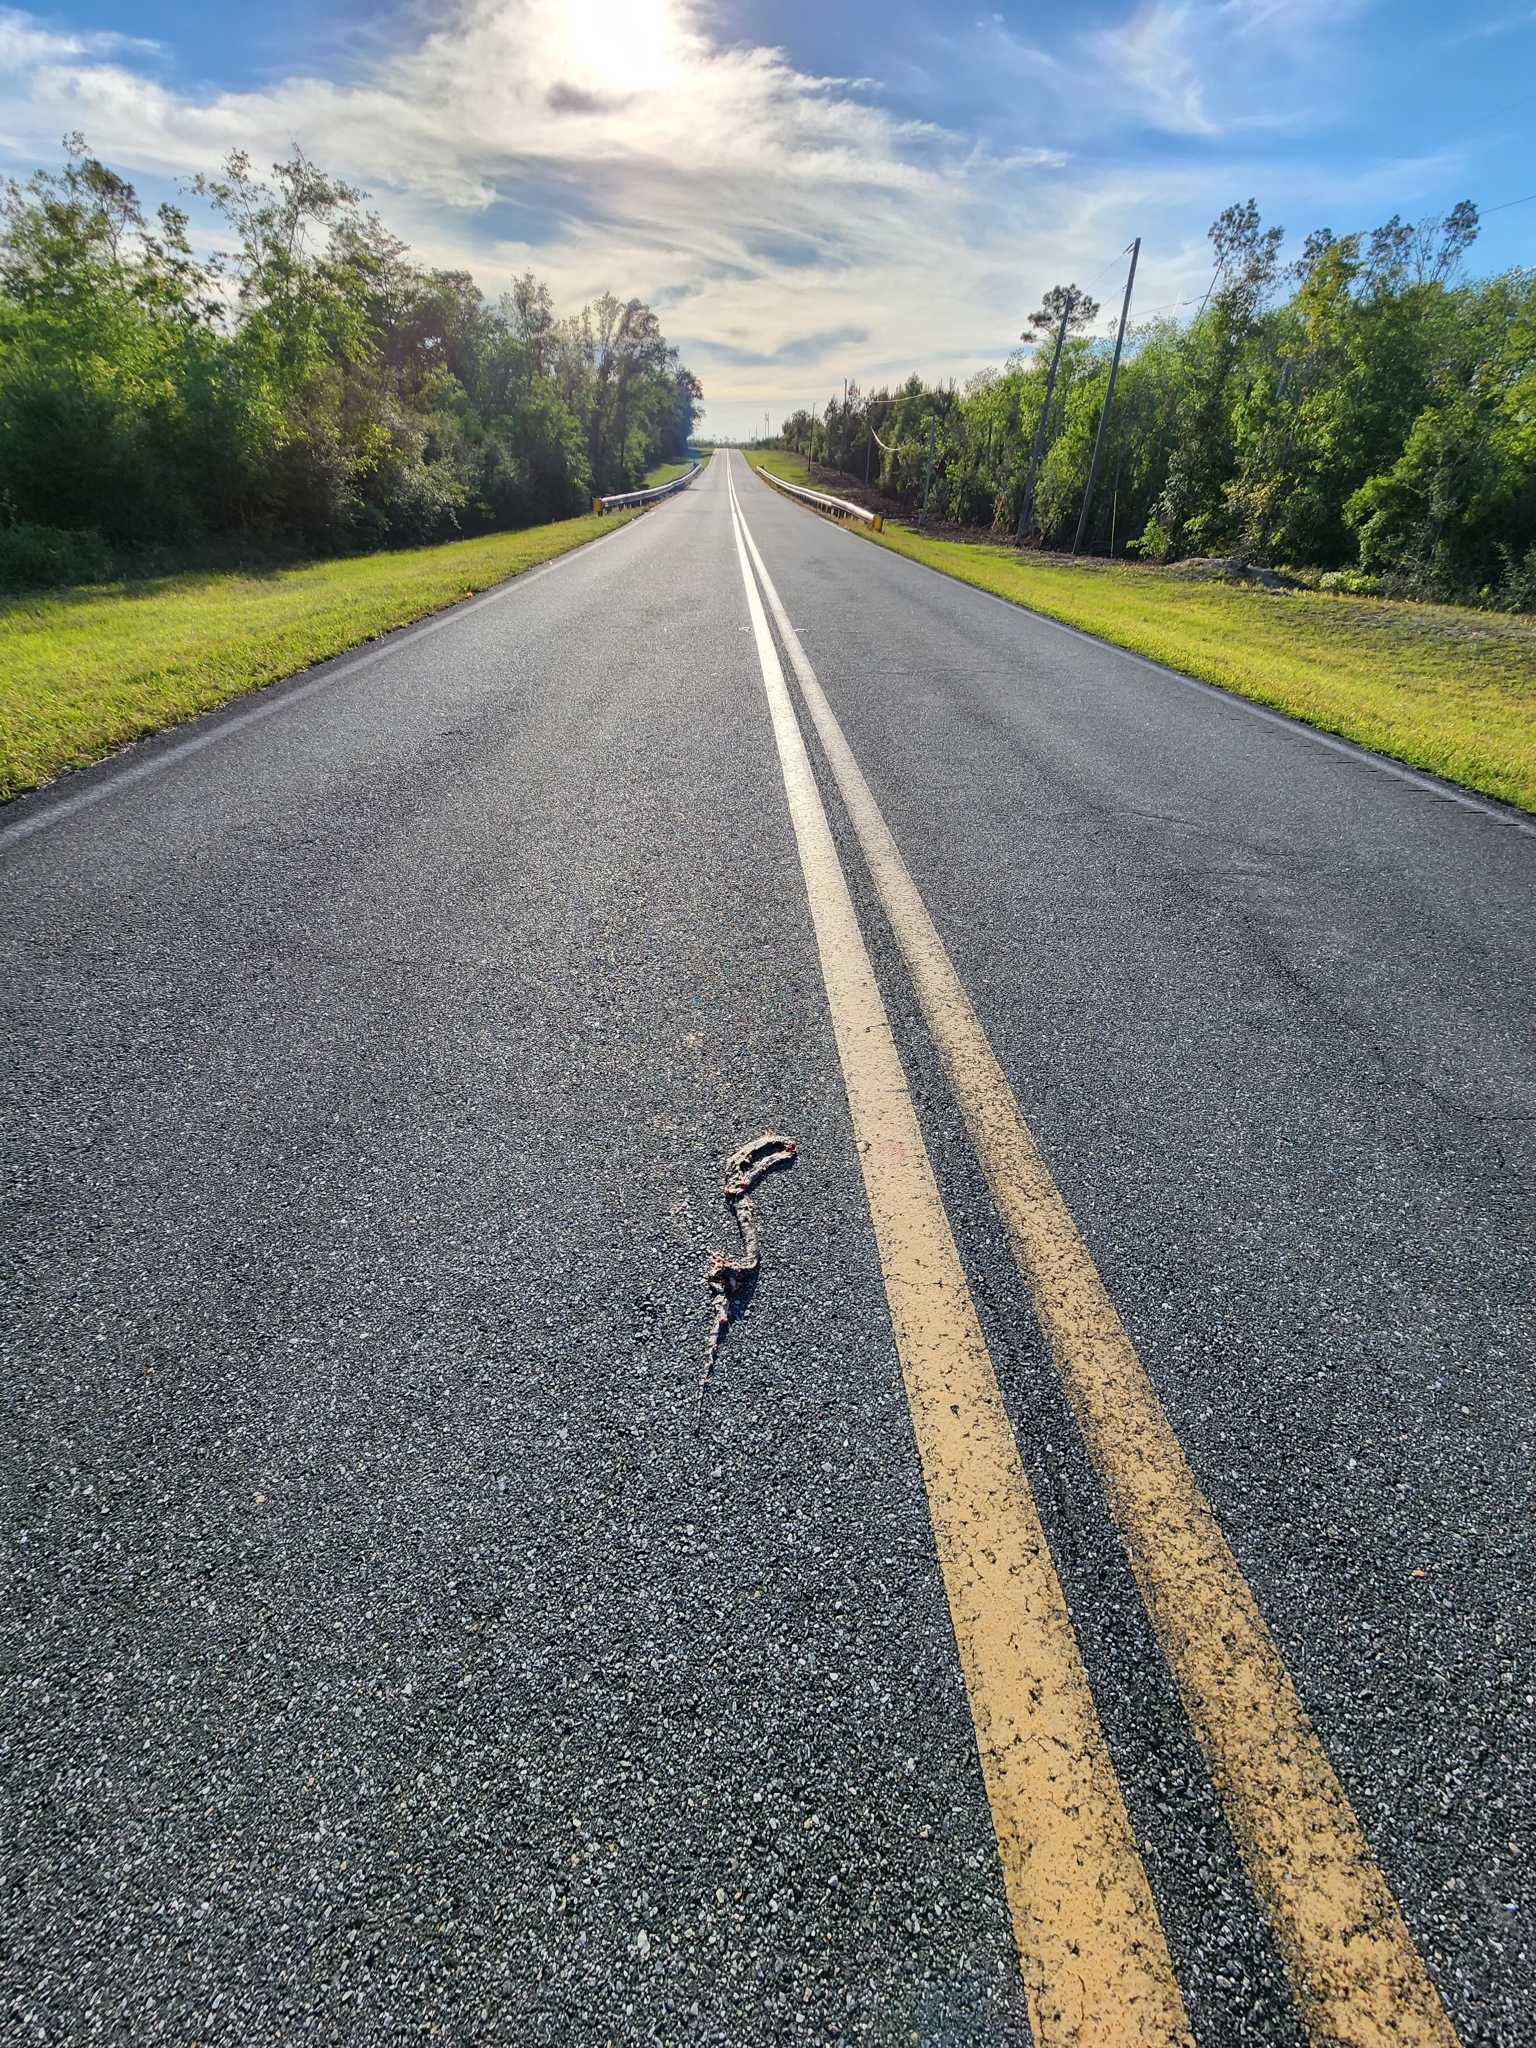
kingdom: Animalia
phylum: Chordata
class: Squamata
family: Colubridae
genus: Coluber
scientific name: Coluber constrictor
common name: Eastern racer
